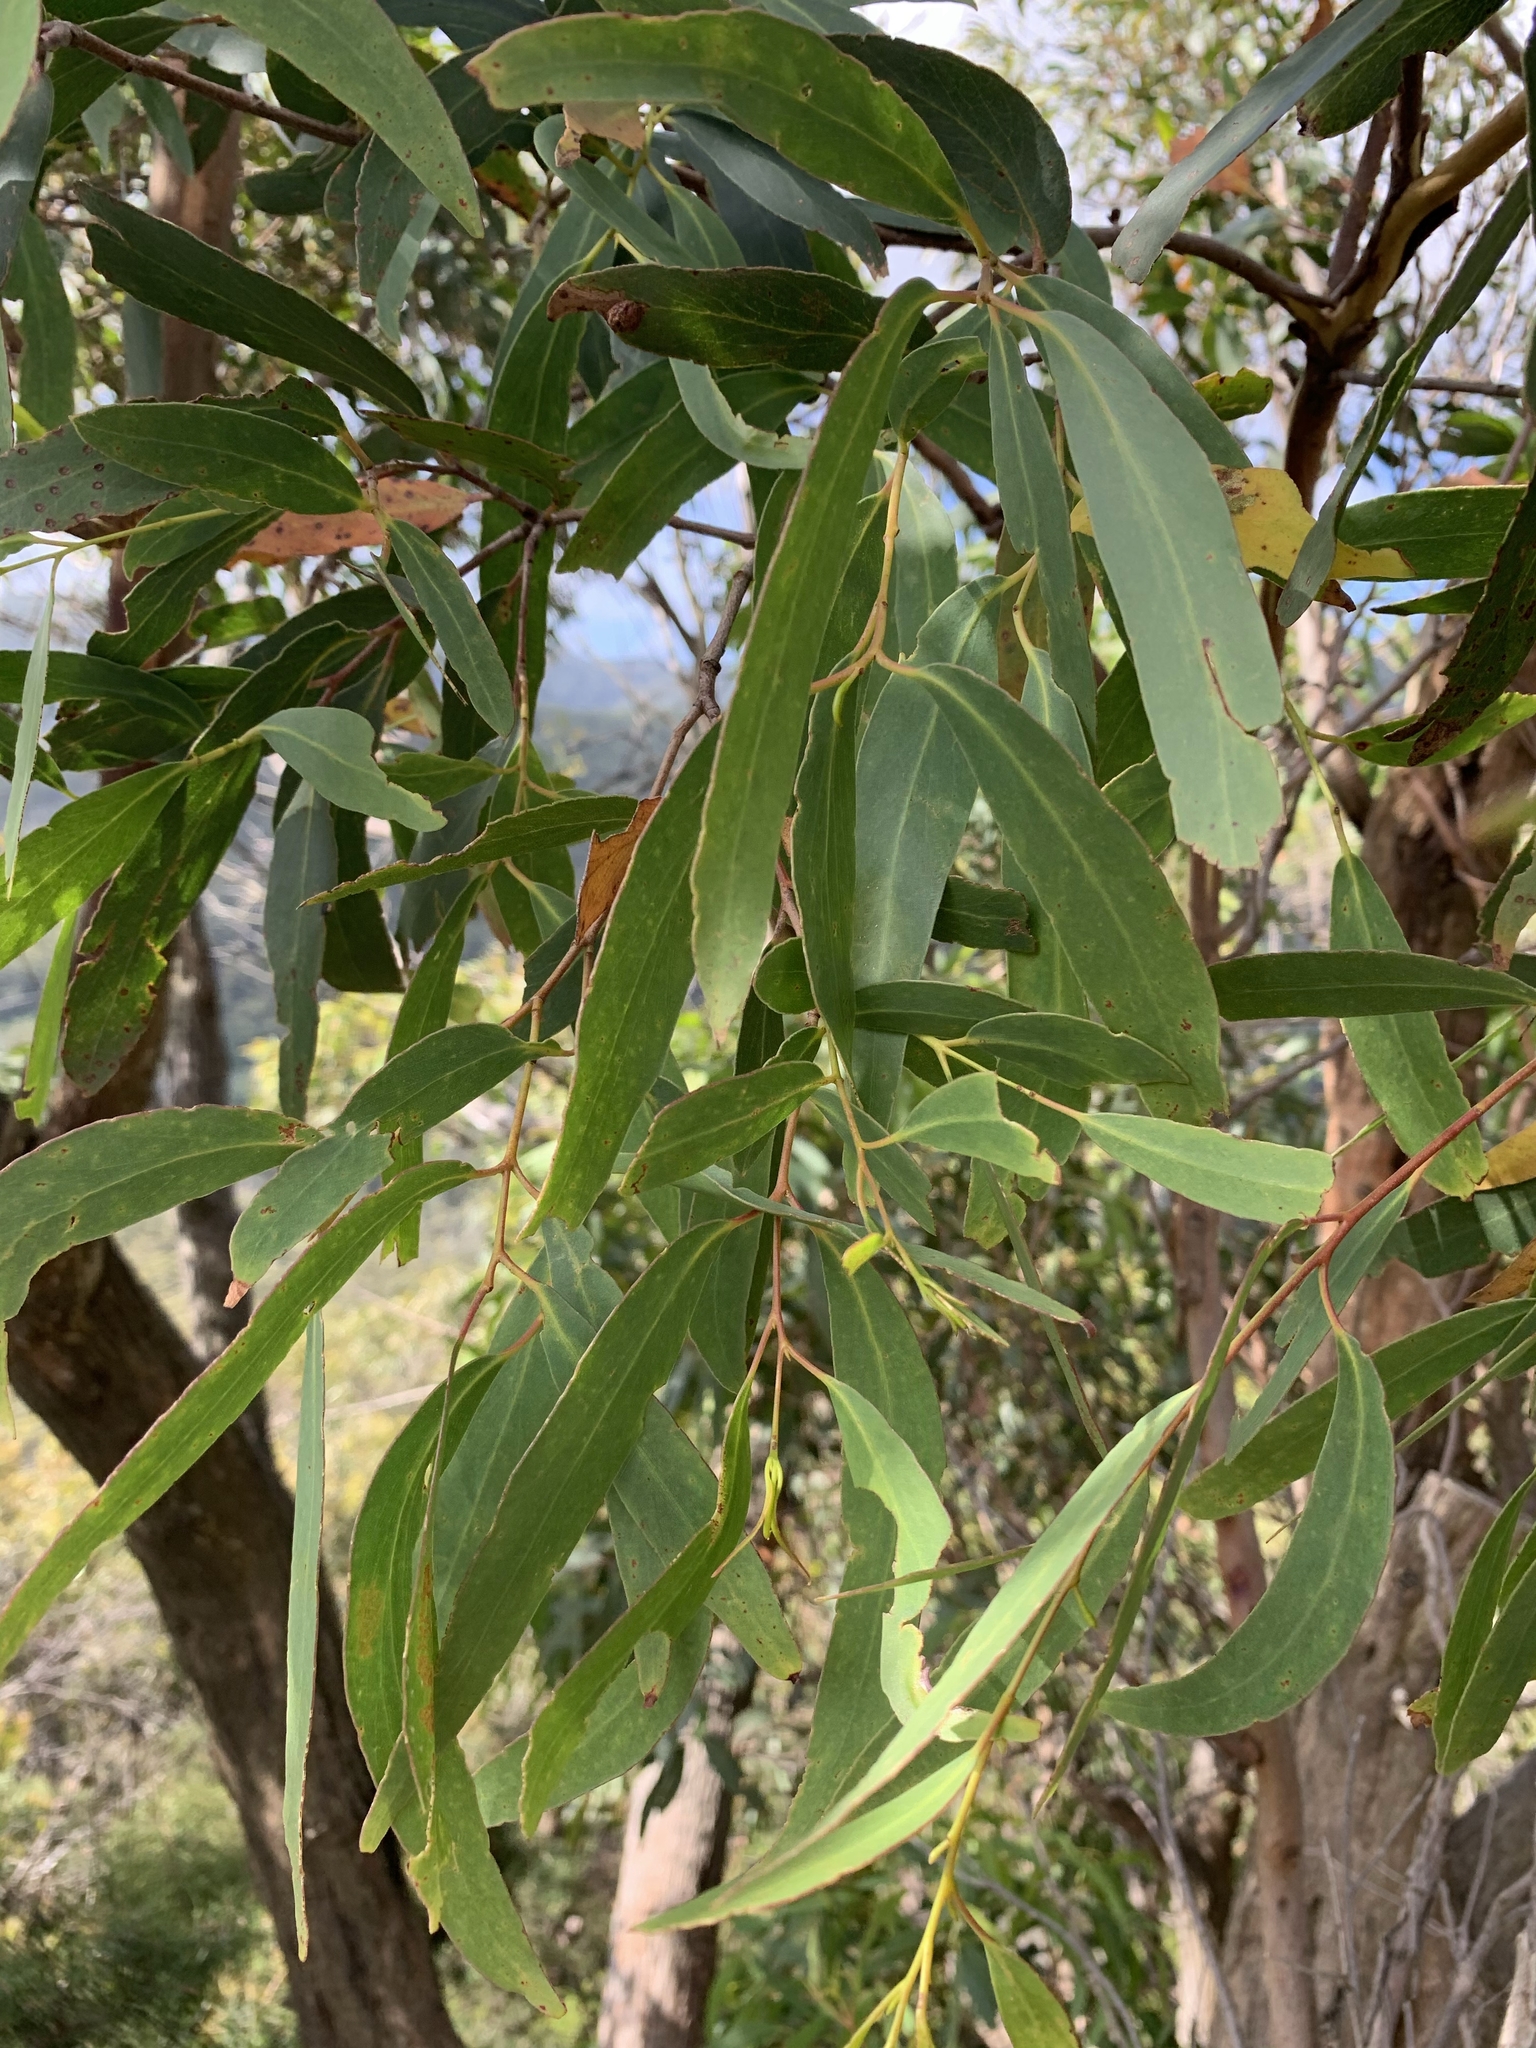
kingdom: Plantae
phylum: Tracheophyta
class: Magnoliopsida
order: Myrtales
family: Myrtaceae
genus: Eucalyptus
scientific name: Eucalyptus willisii
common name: South gippsland peppermint
